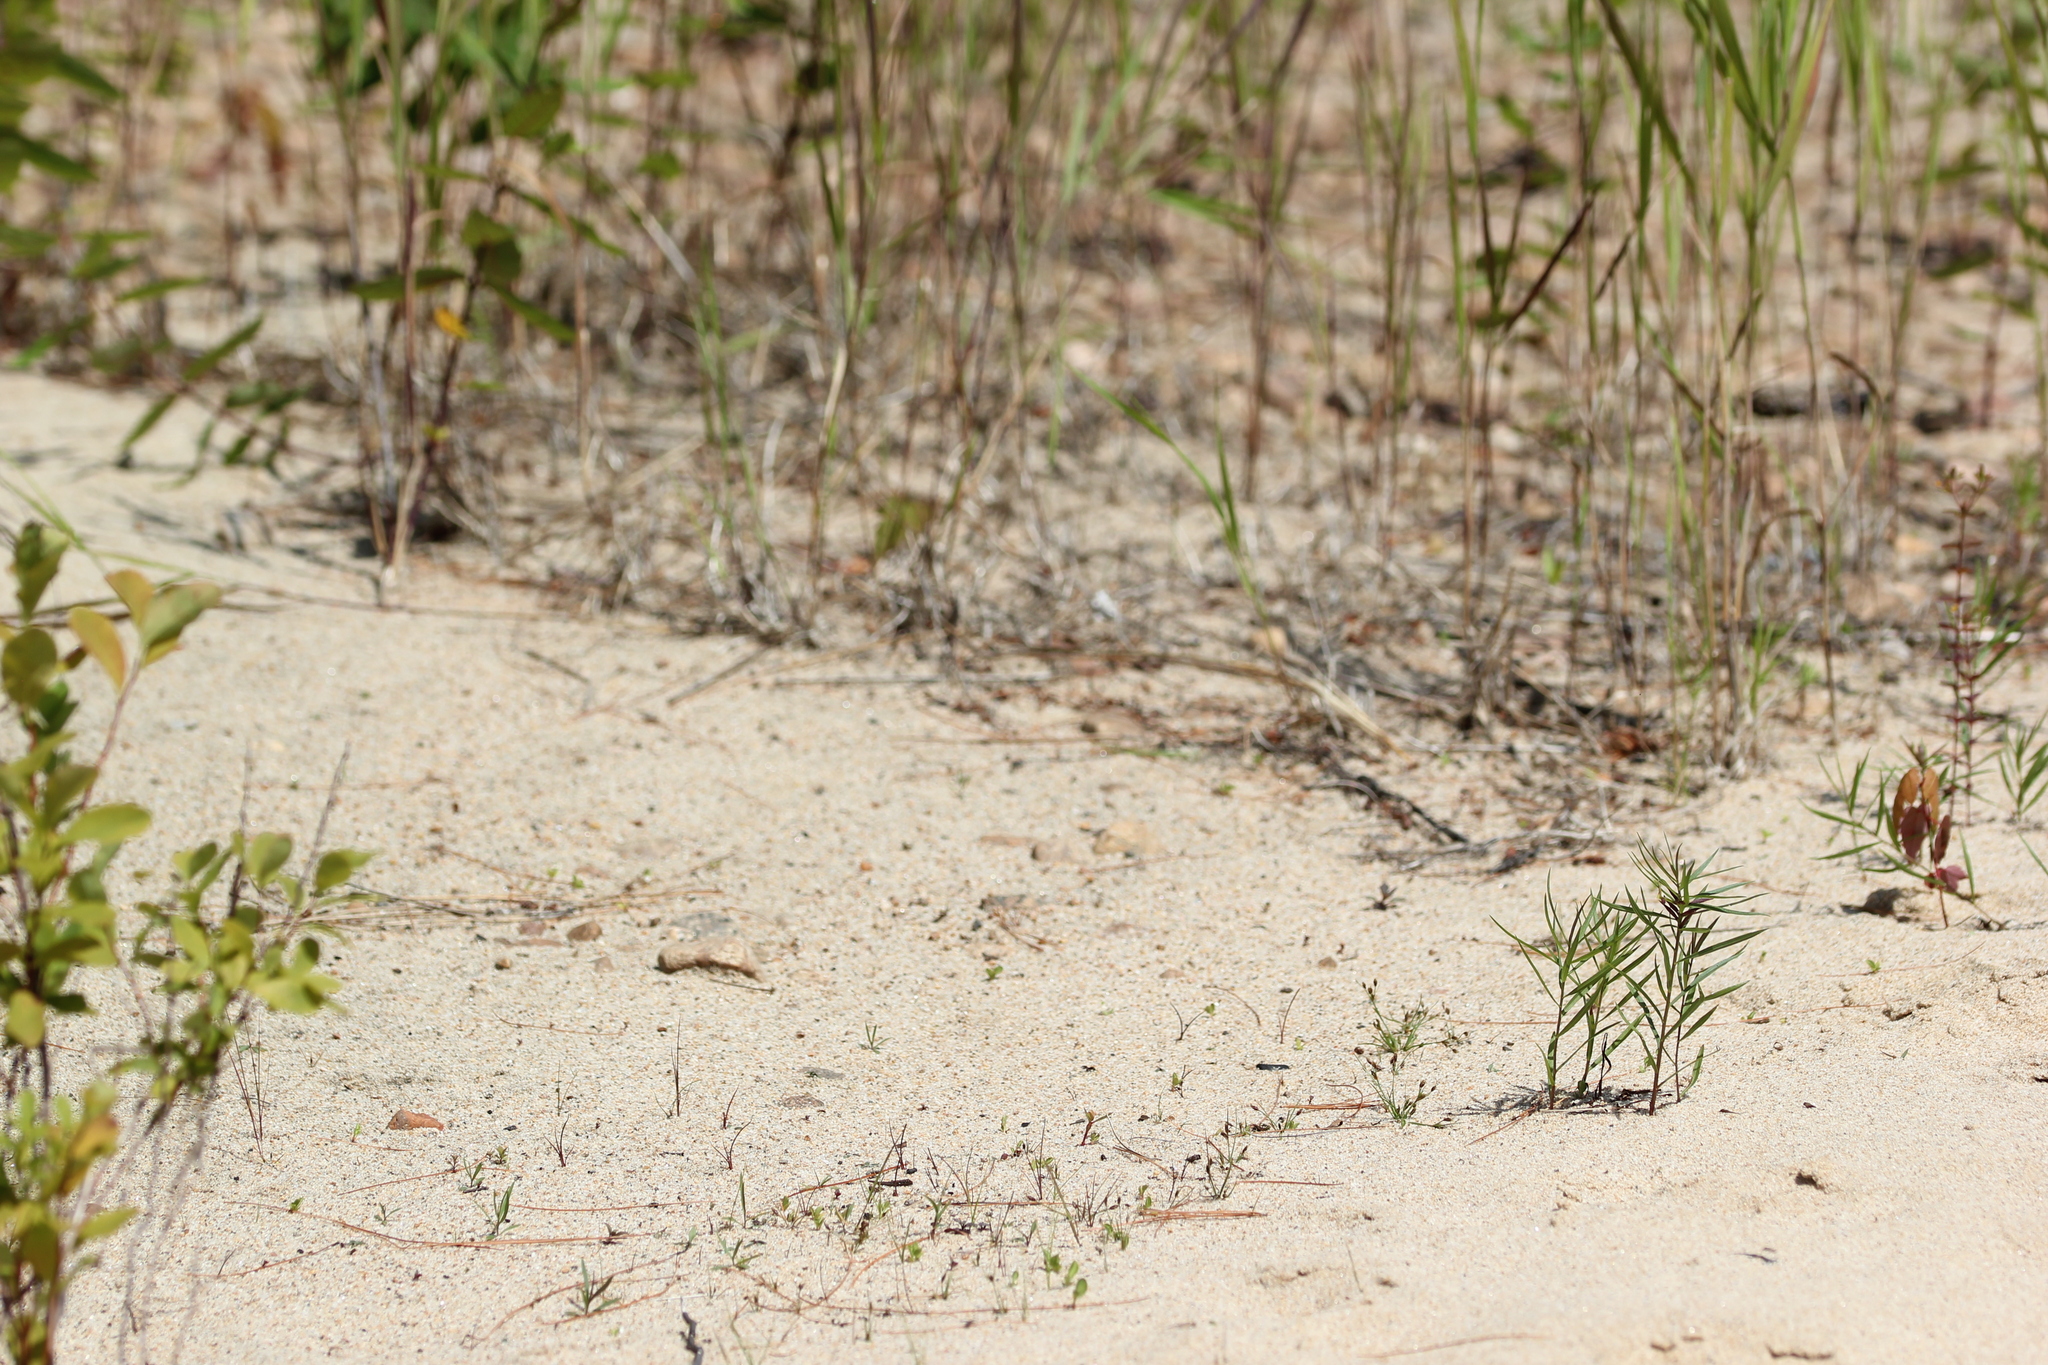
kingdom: Plantae
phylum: Tracheophyta
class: Liliopsida
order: Poales
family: Cyperaceae
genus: Fimbristylis
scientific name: Fimbristylis autumnalis
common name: Slender fimbristylis
